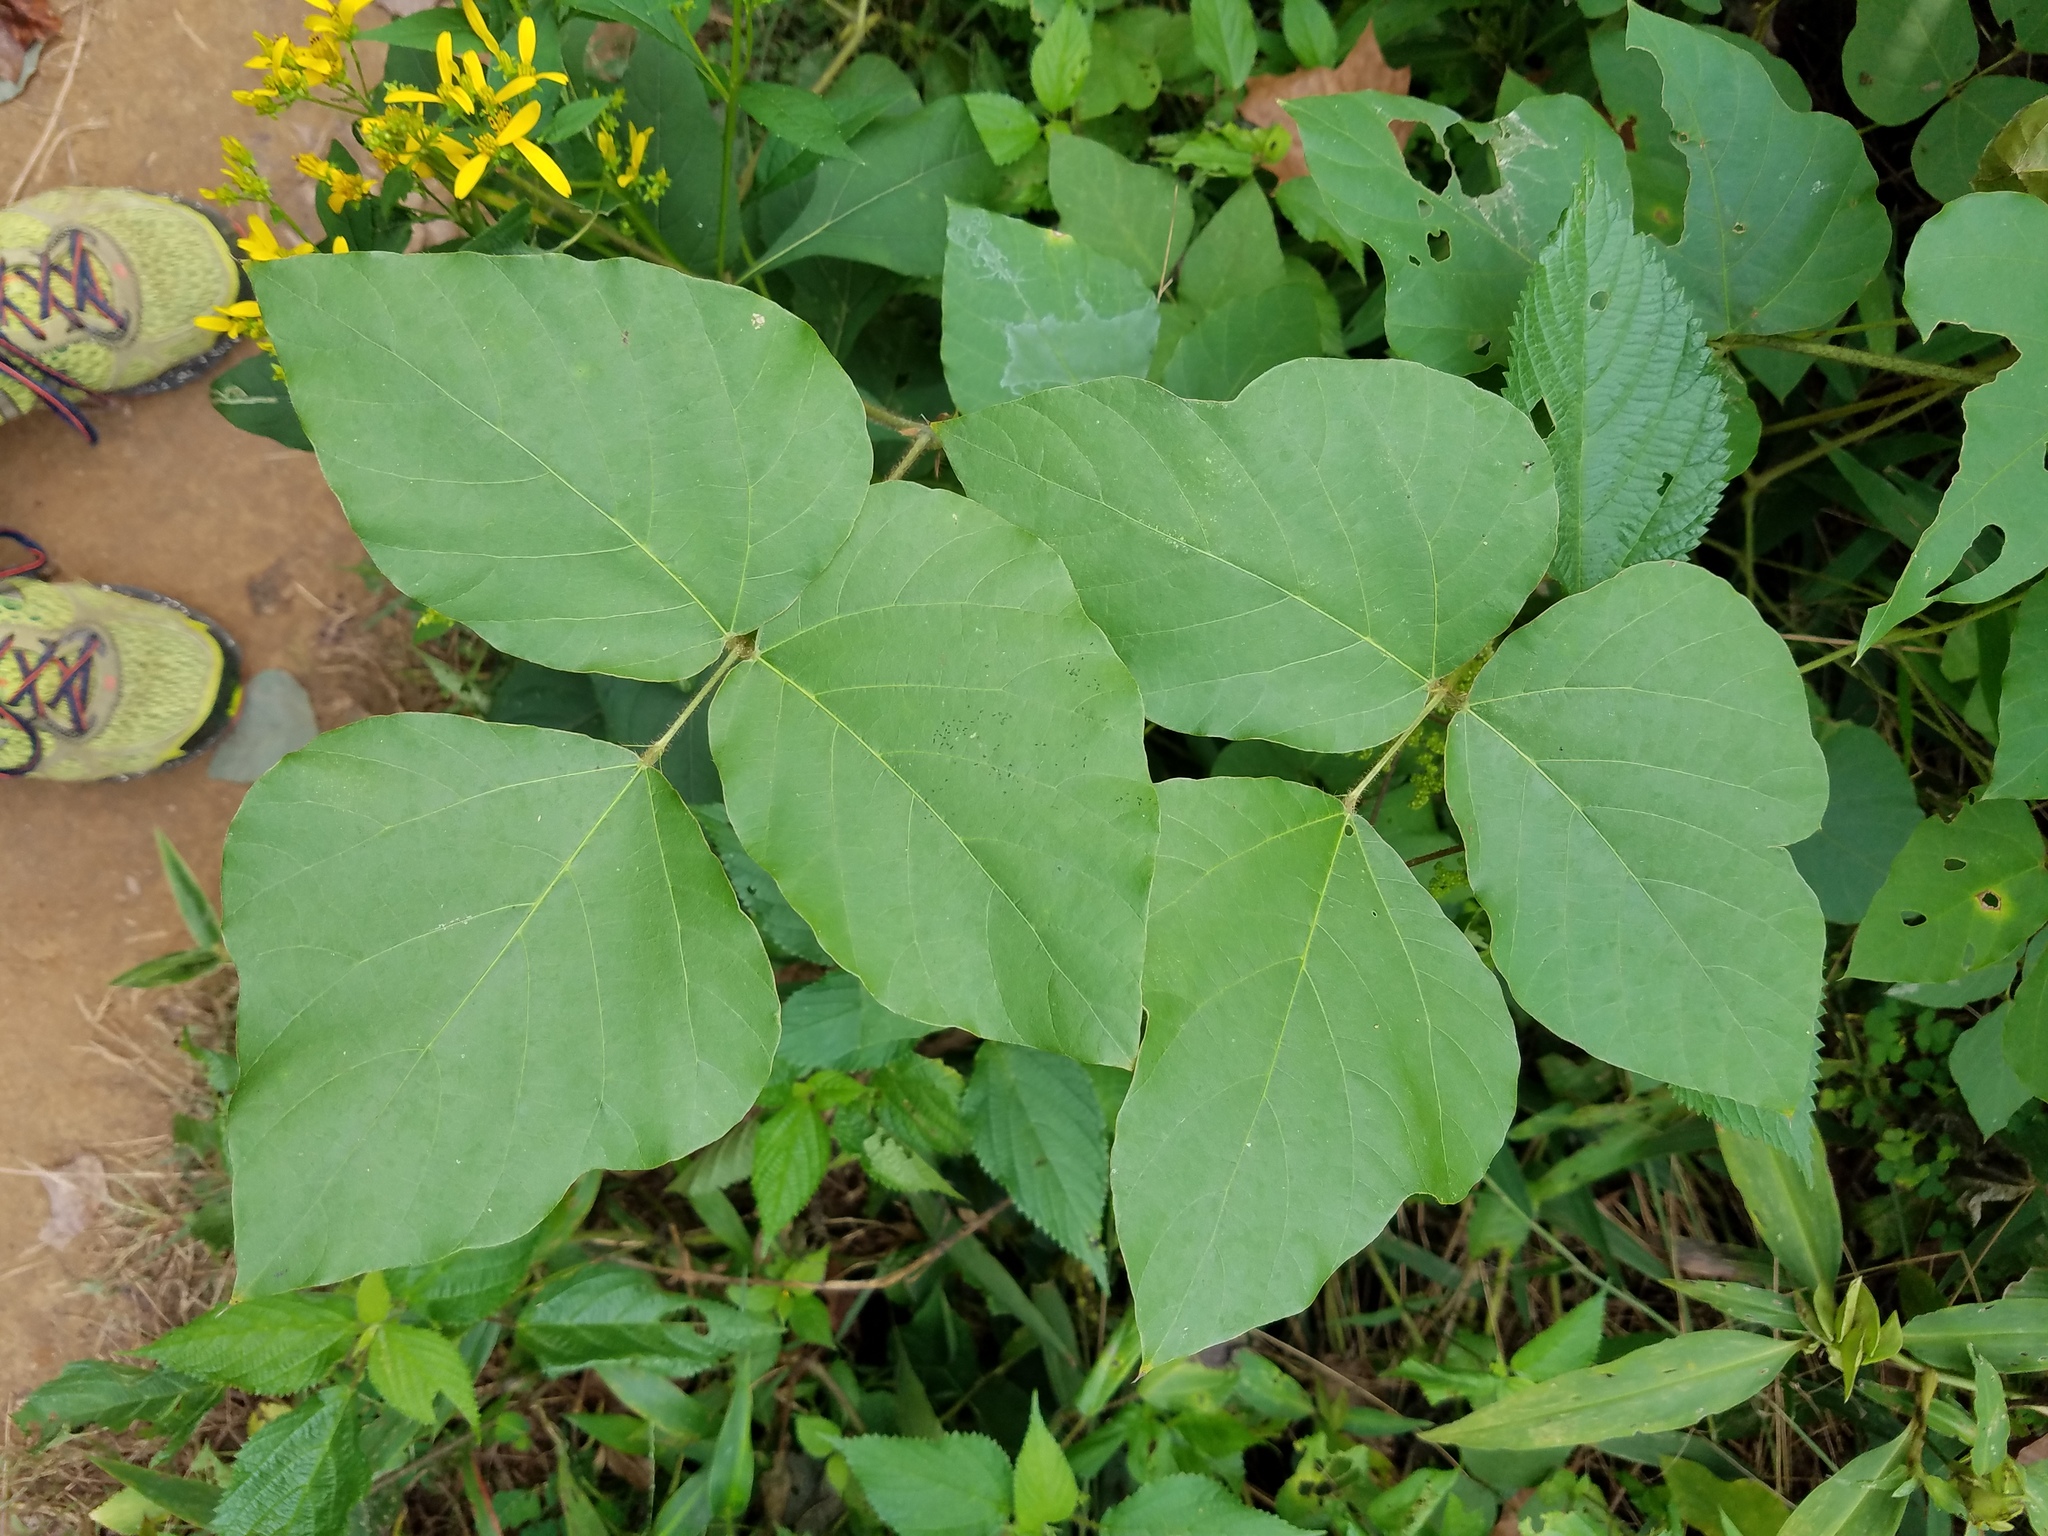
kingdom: Plantae
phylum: Tracheophyta
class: Magnoliopsida
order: Fabales
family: Fabaceae
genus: Pueraria
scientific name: Pueraria montana
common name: Kudzu
